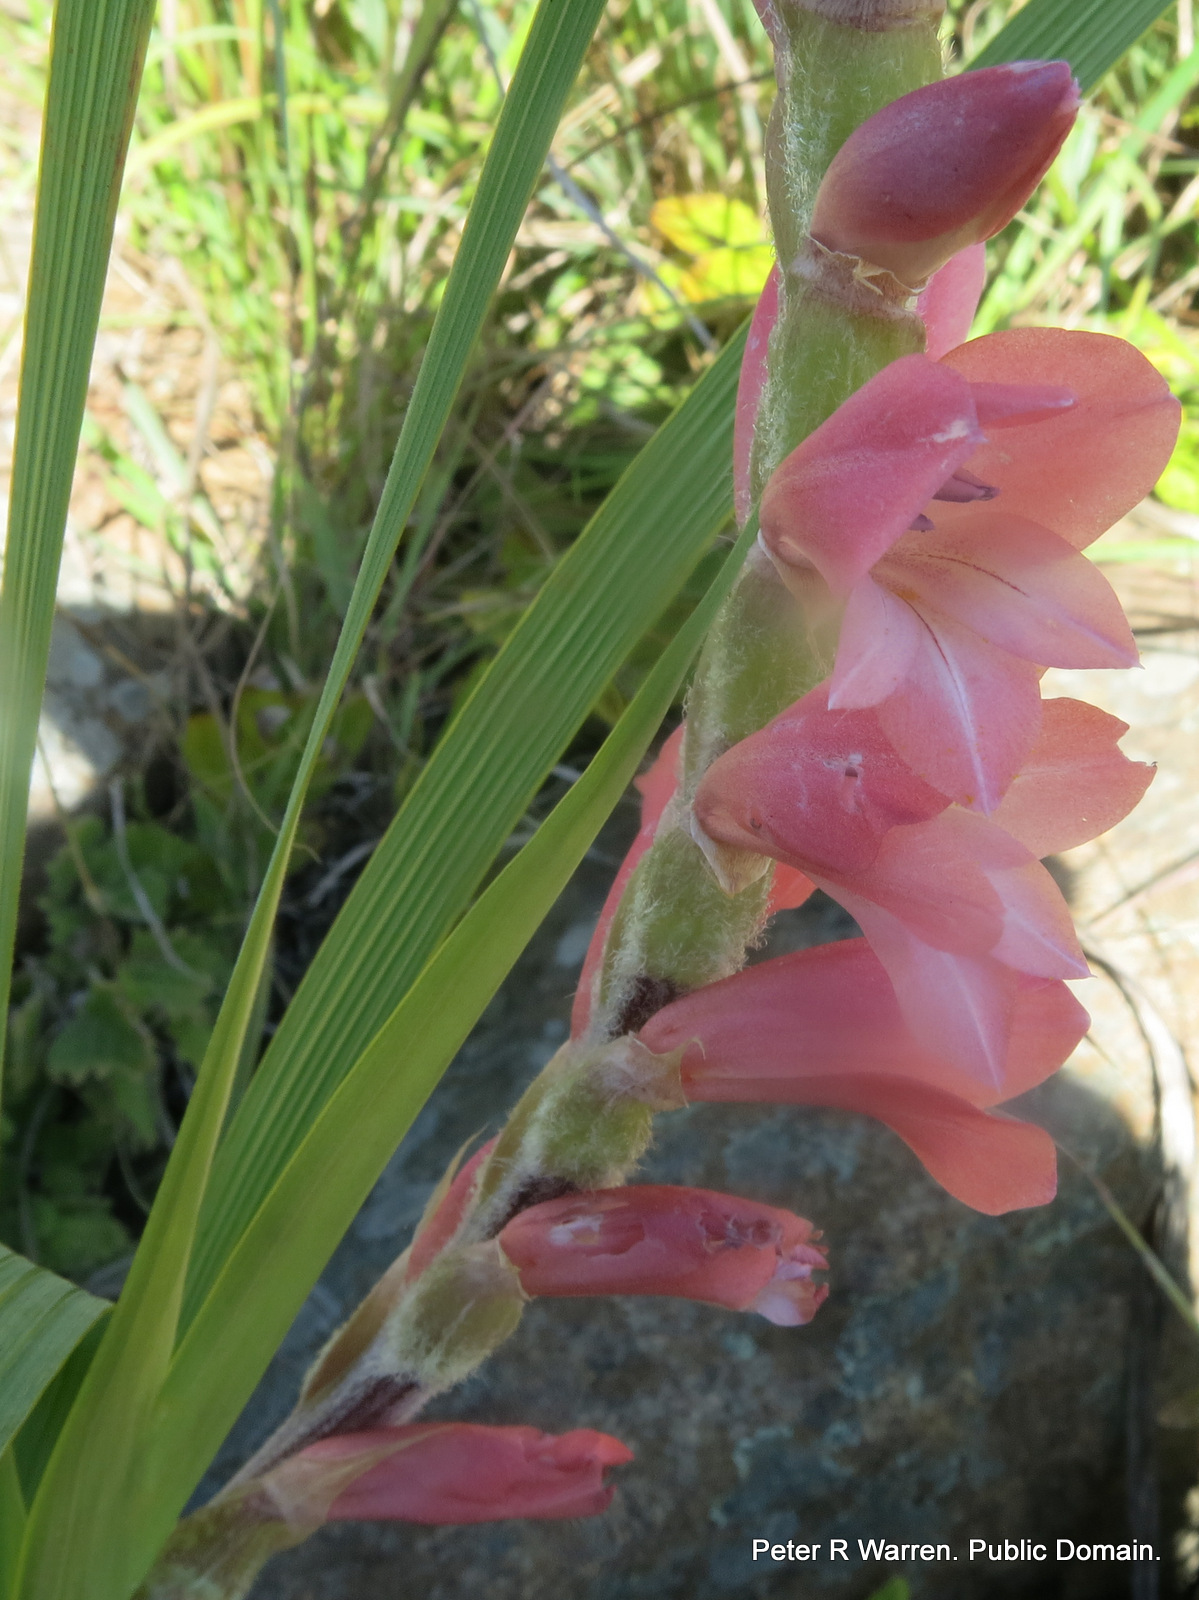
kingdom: Plantae
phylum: Tracheophyta
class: Liliopsida
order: Asparagales
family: Iridaceae
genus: Gladiolus
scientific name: Gladiolus sericeovillosus
